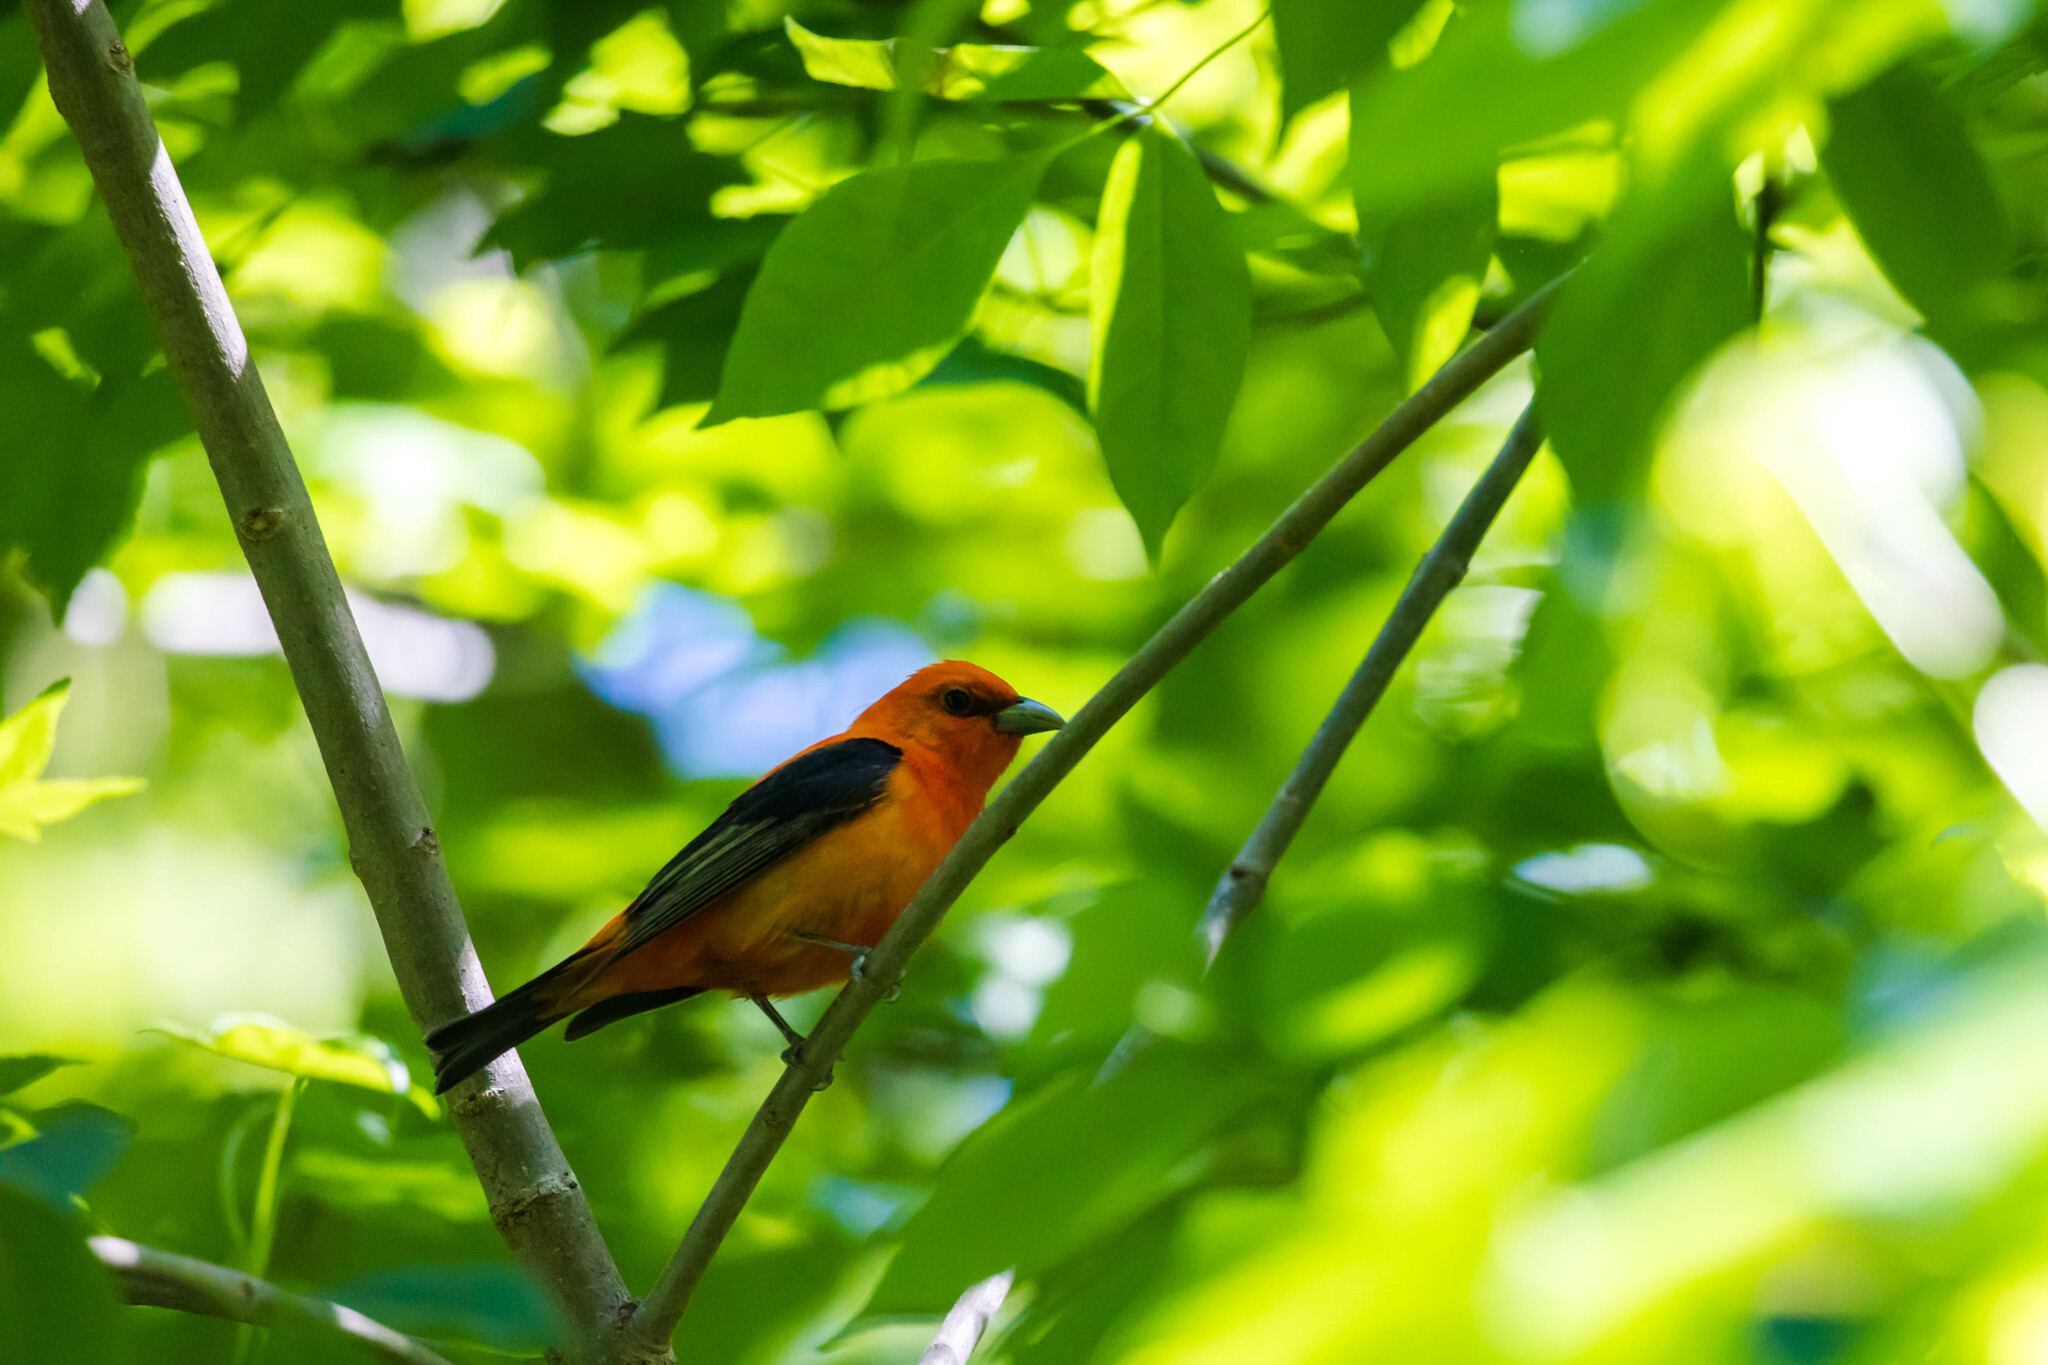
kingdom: Animalia
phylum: Chordata
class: Aves
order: Passeriformes
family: Cardinalidae
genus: Piranga
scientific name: Piranga olivacea
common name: Scarlet tanager
